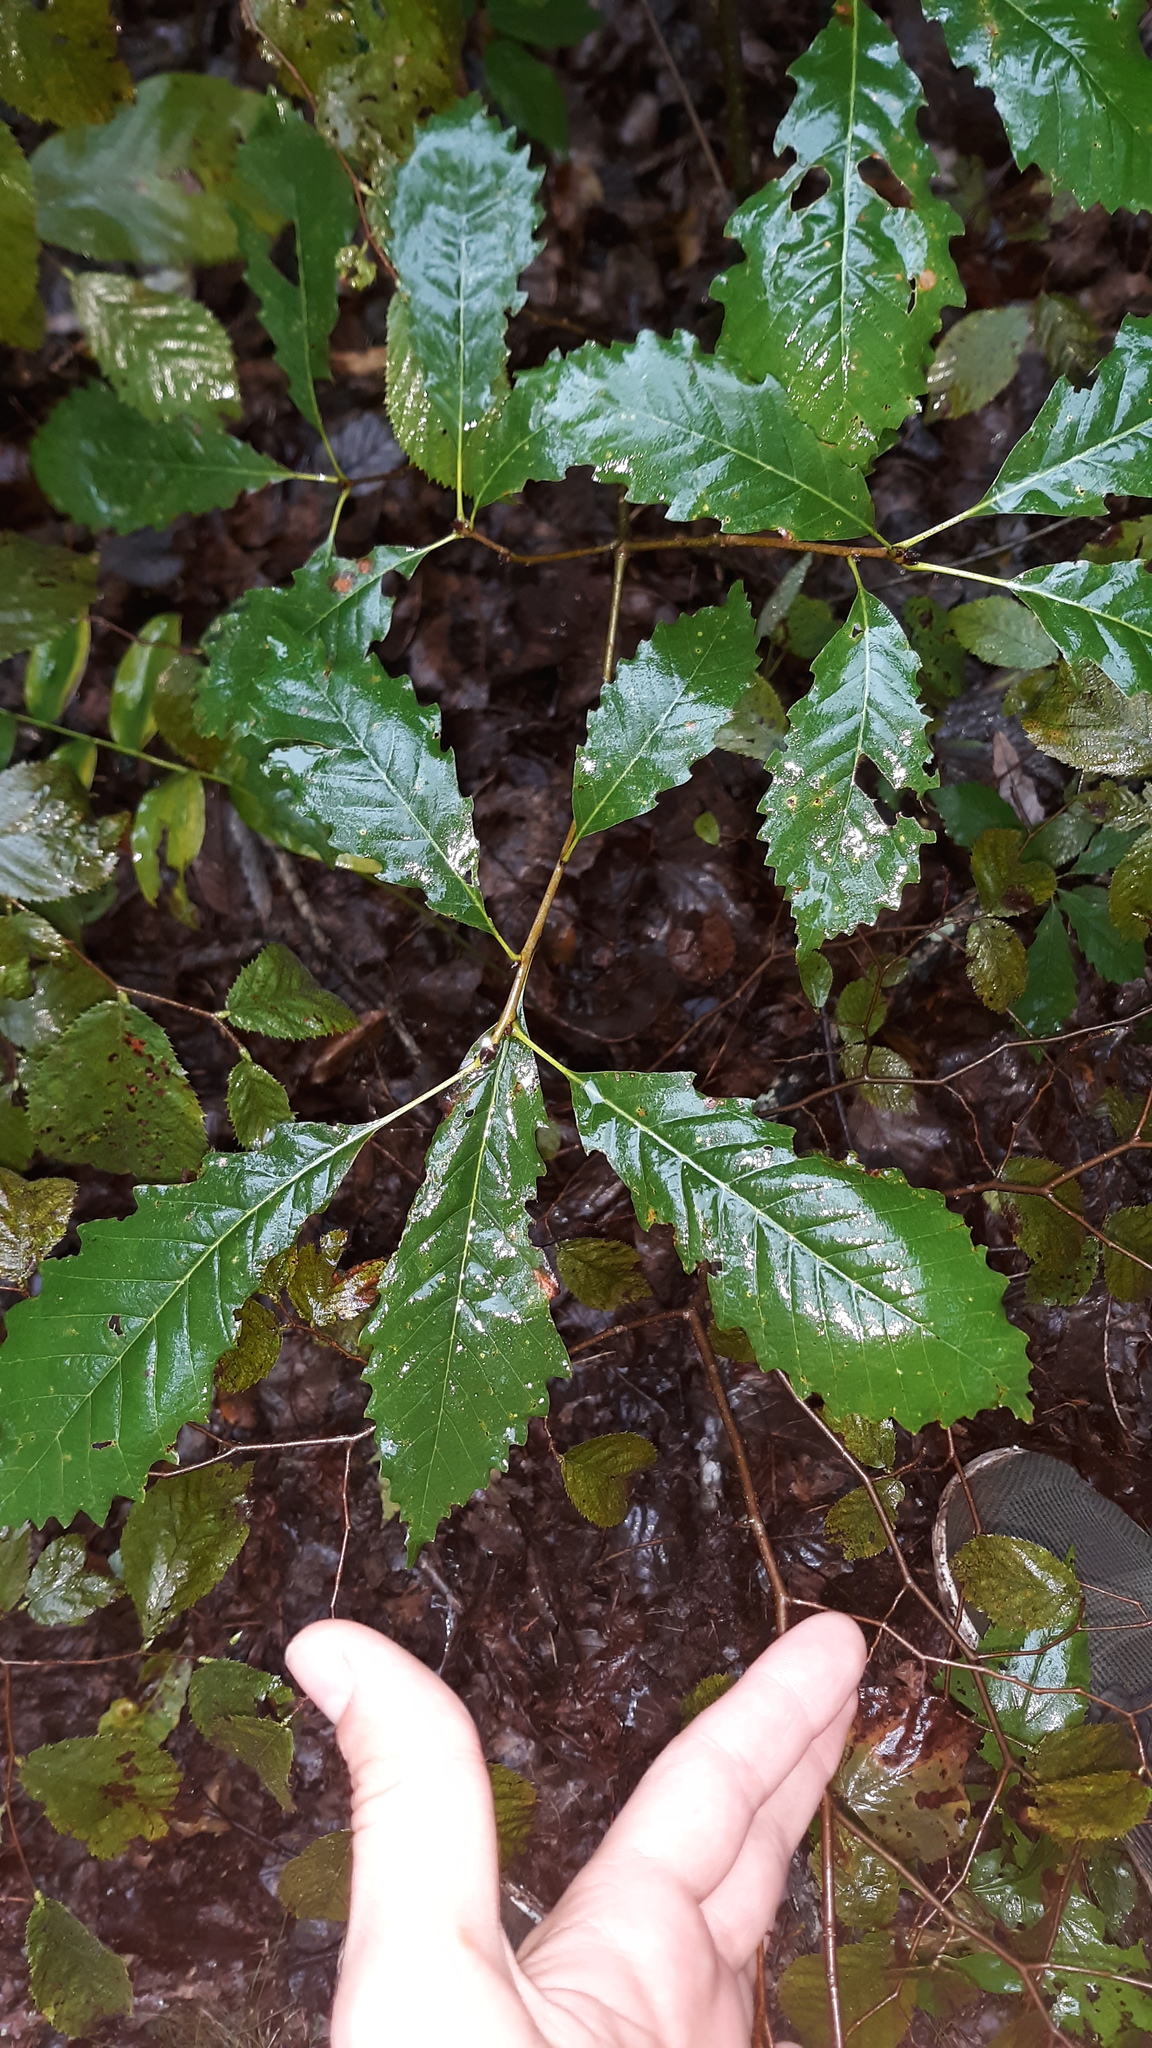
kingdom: Plantae
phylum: Tracheophyta
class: Magnoliopsida
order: Fagales
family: Fagaceae
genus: Quercus
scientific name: Quercus muehlenbergii
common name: Chinkapin oak
